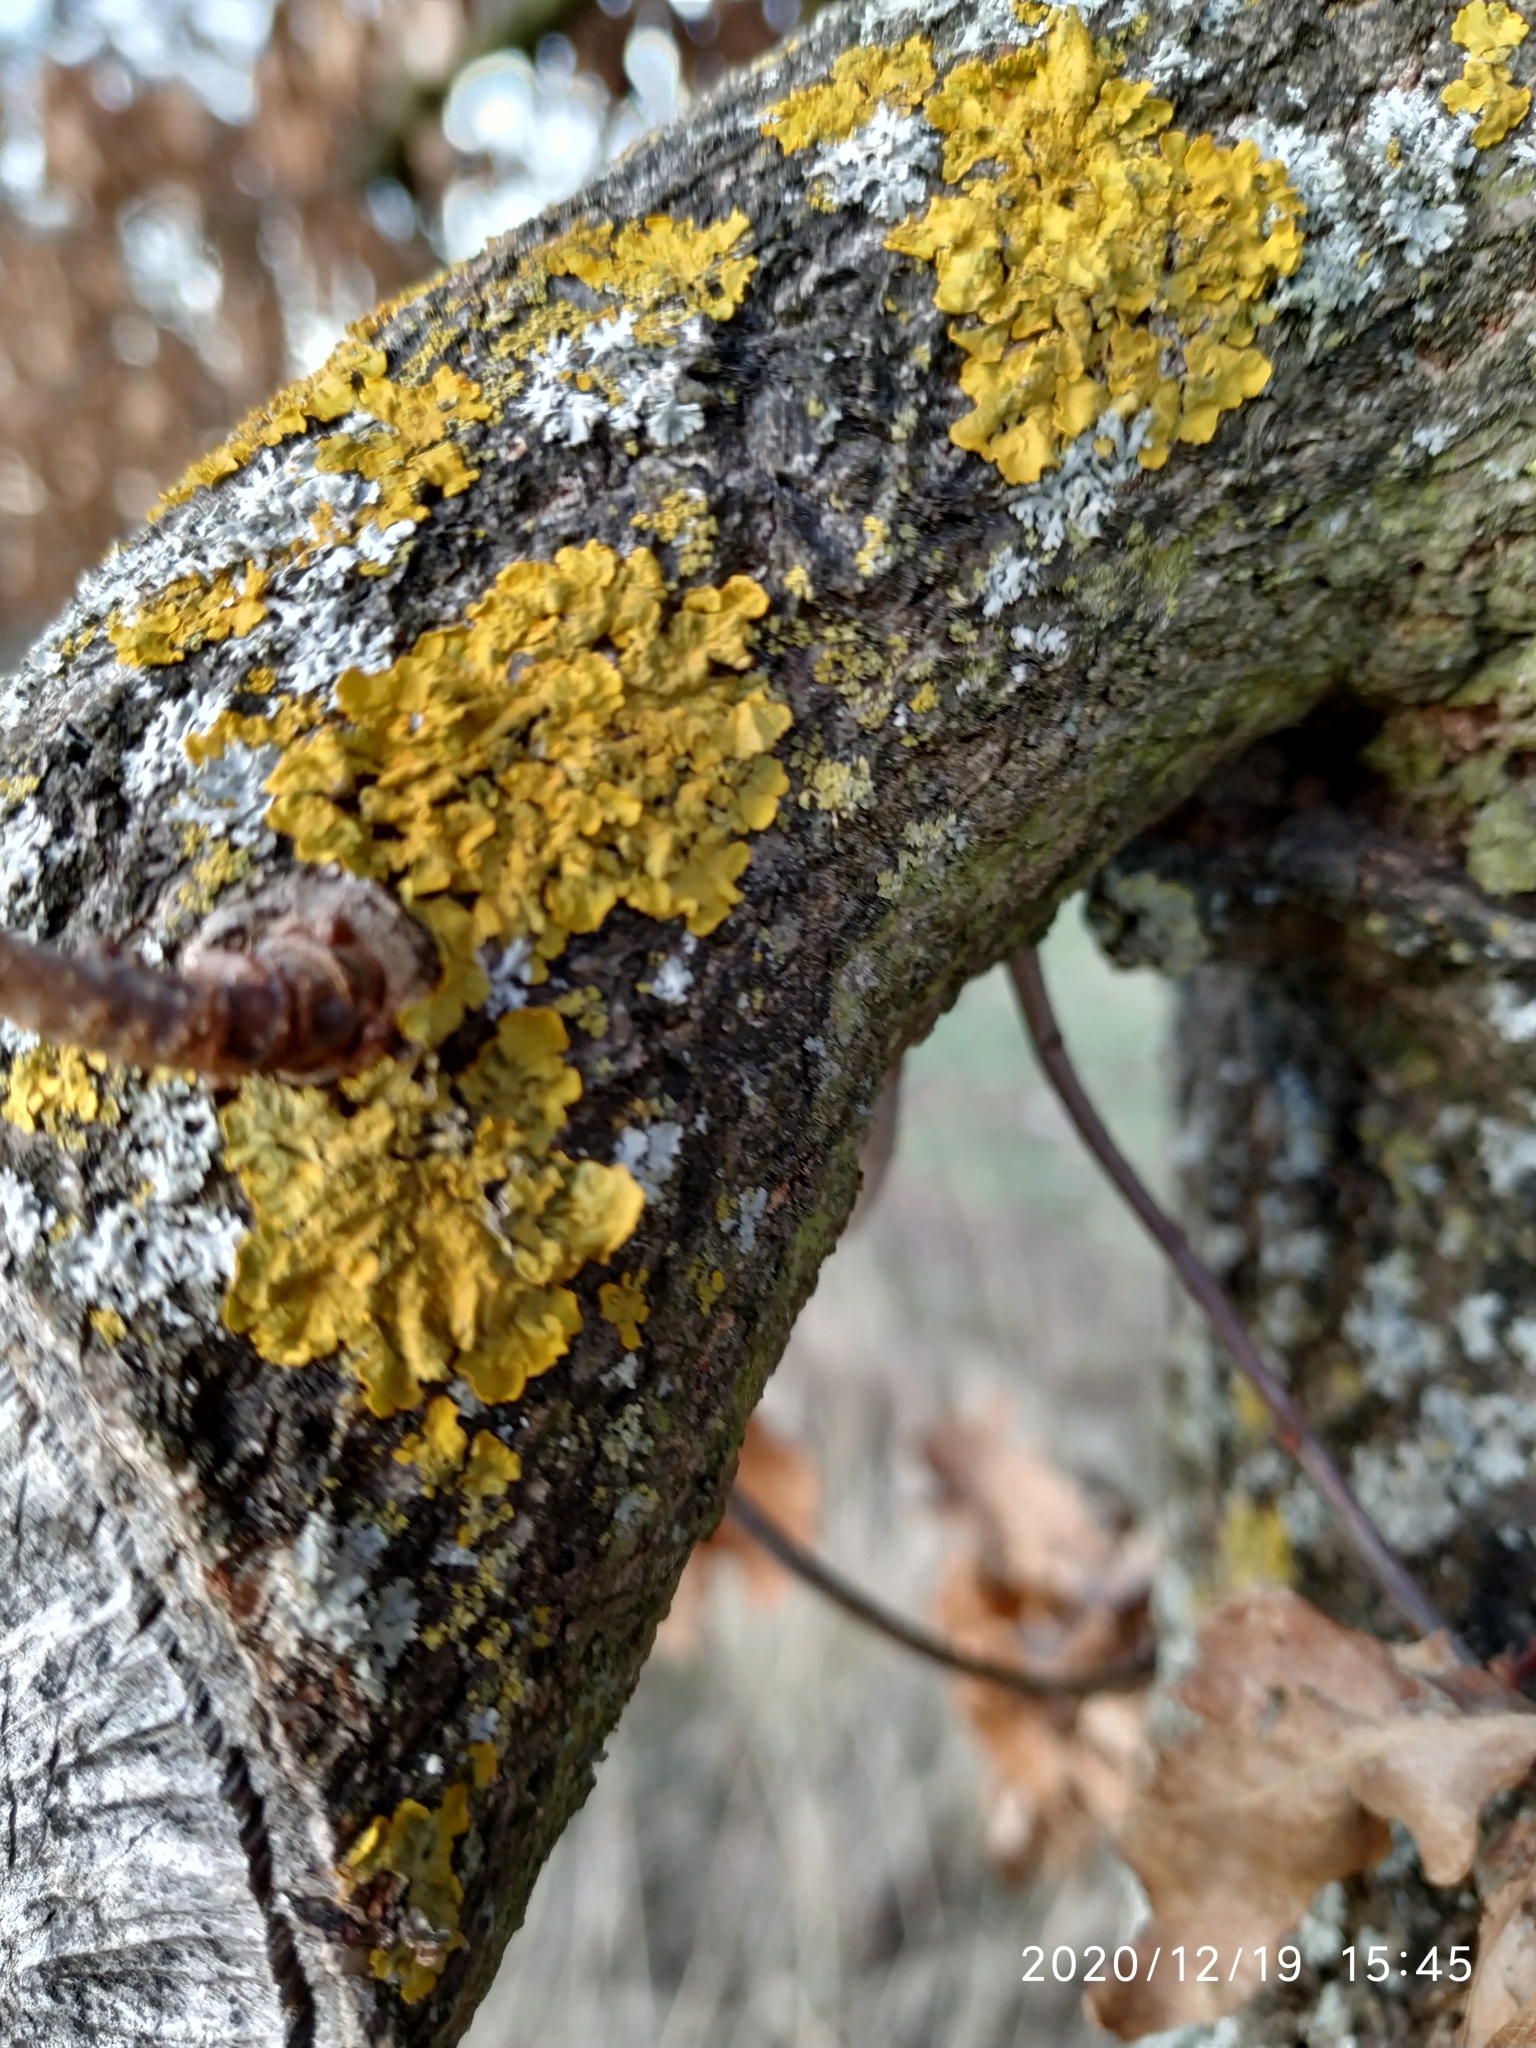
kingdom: Fungi
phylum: Ascomycota
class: Lecanoromycetes
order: Teloschistales
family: Teloschistaceae
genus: Xanthoria
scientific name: Xanthoria parietina
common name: Common orange lichen
